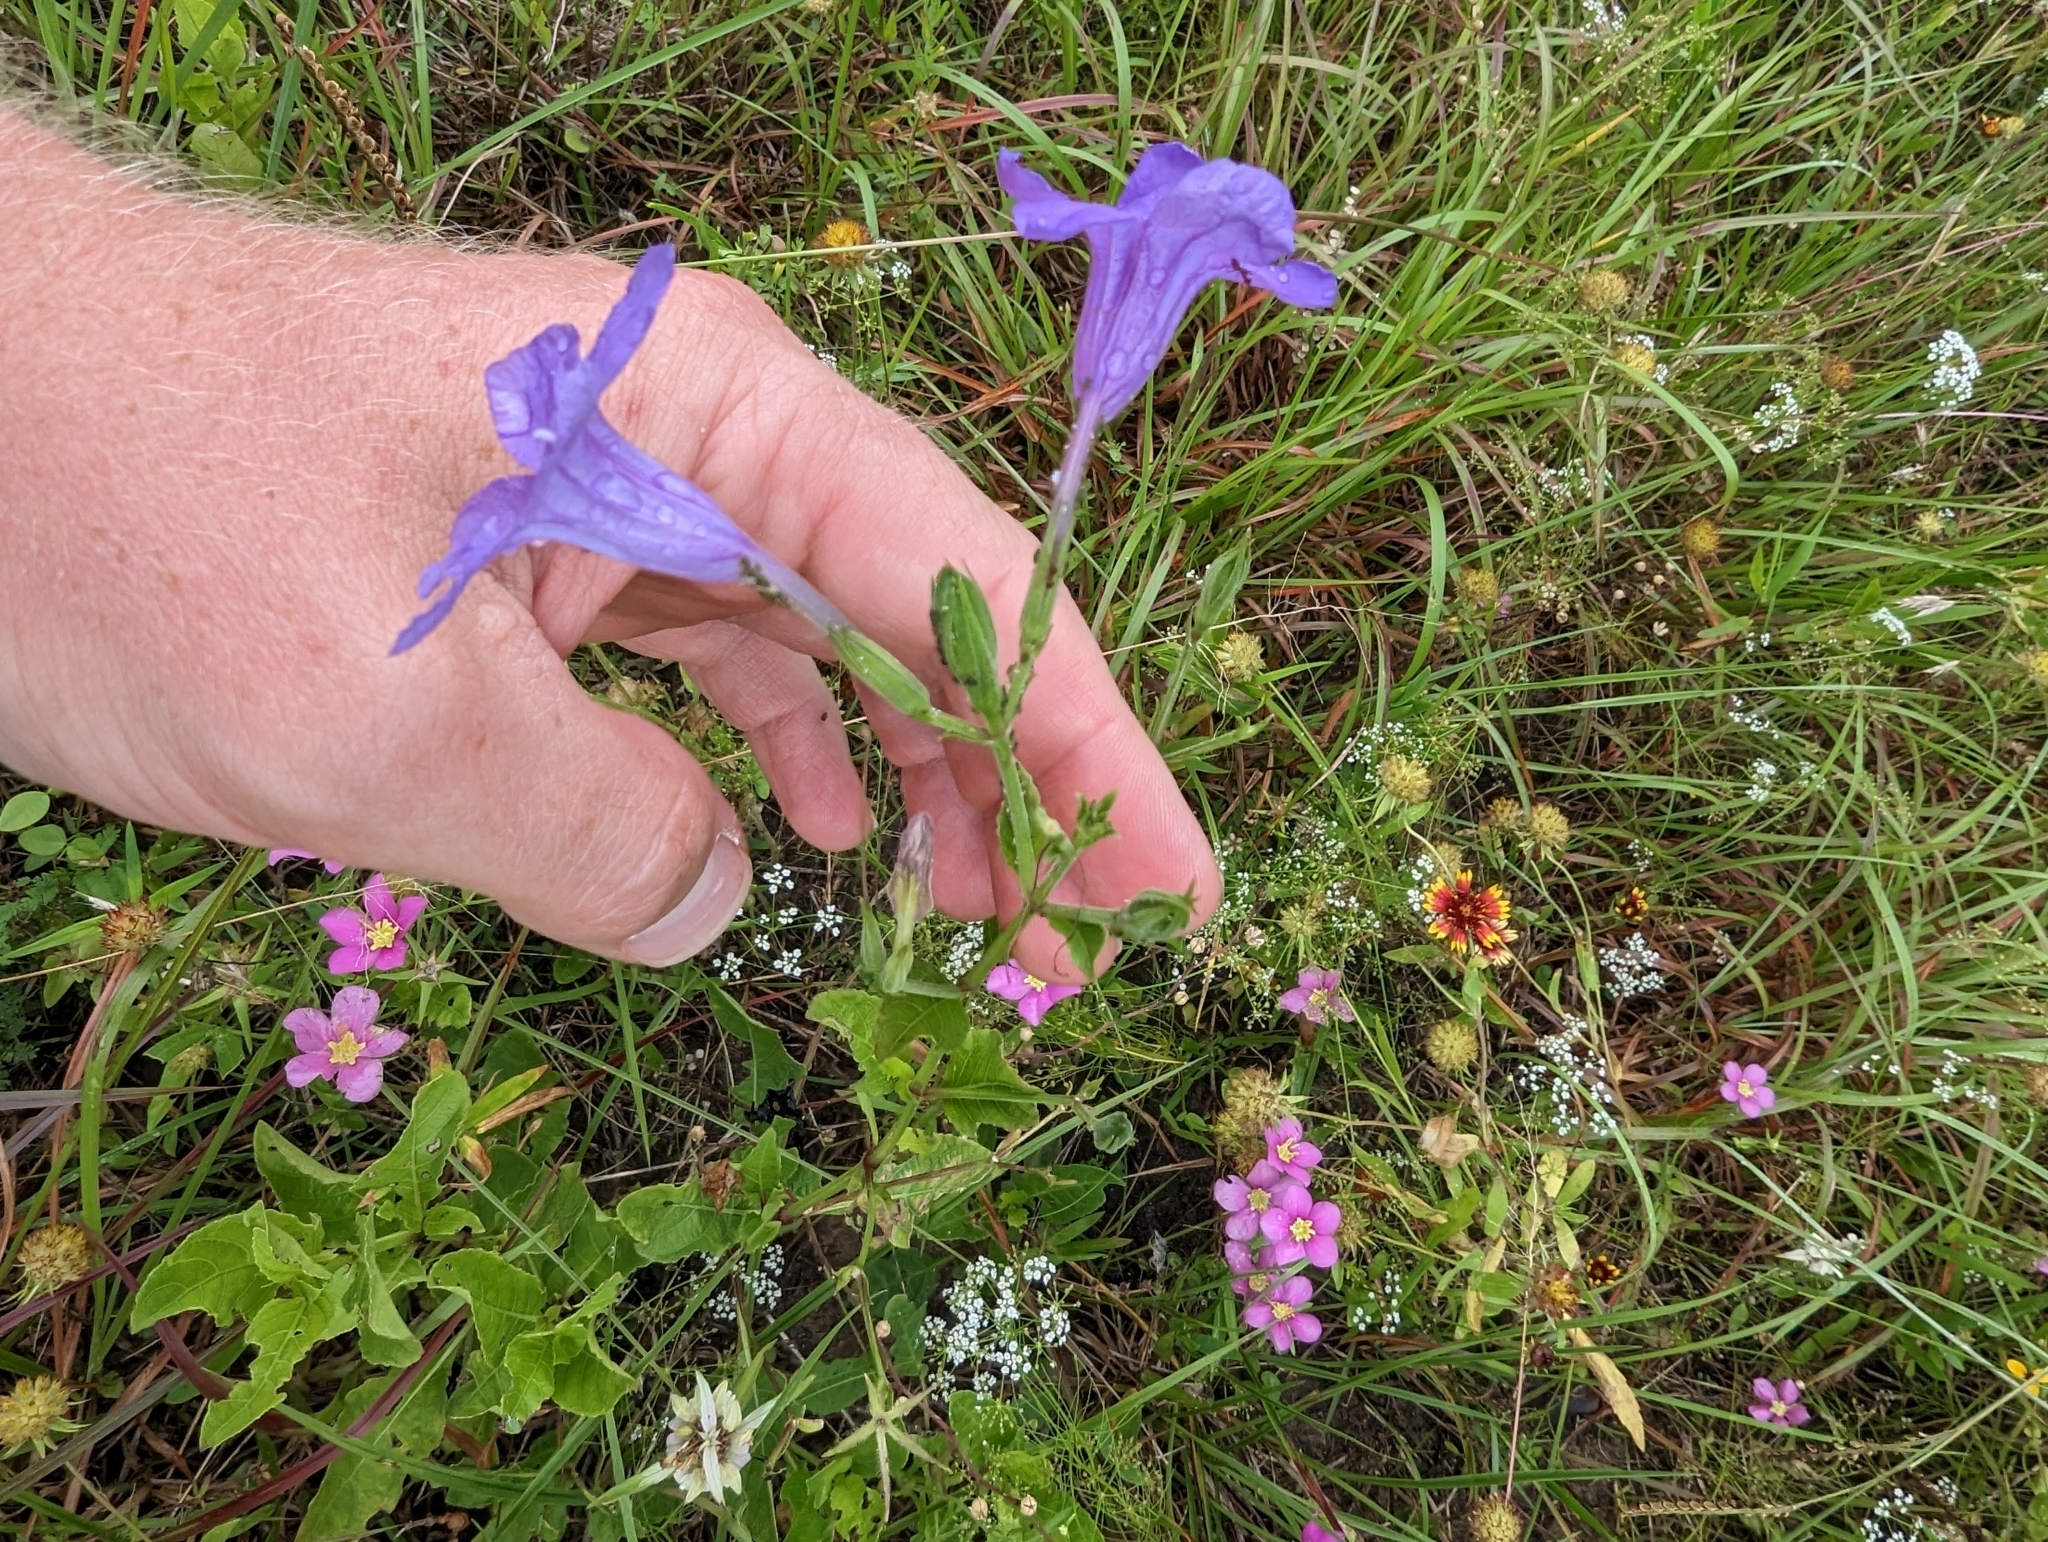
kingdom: Plantae
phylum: Tracheophyta
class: Magnoliopsida
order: Lamiales
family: Acanthaceae
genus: Ruellia
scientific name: Ruellia ciliatiflora
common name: Hairyflower wild petunia
